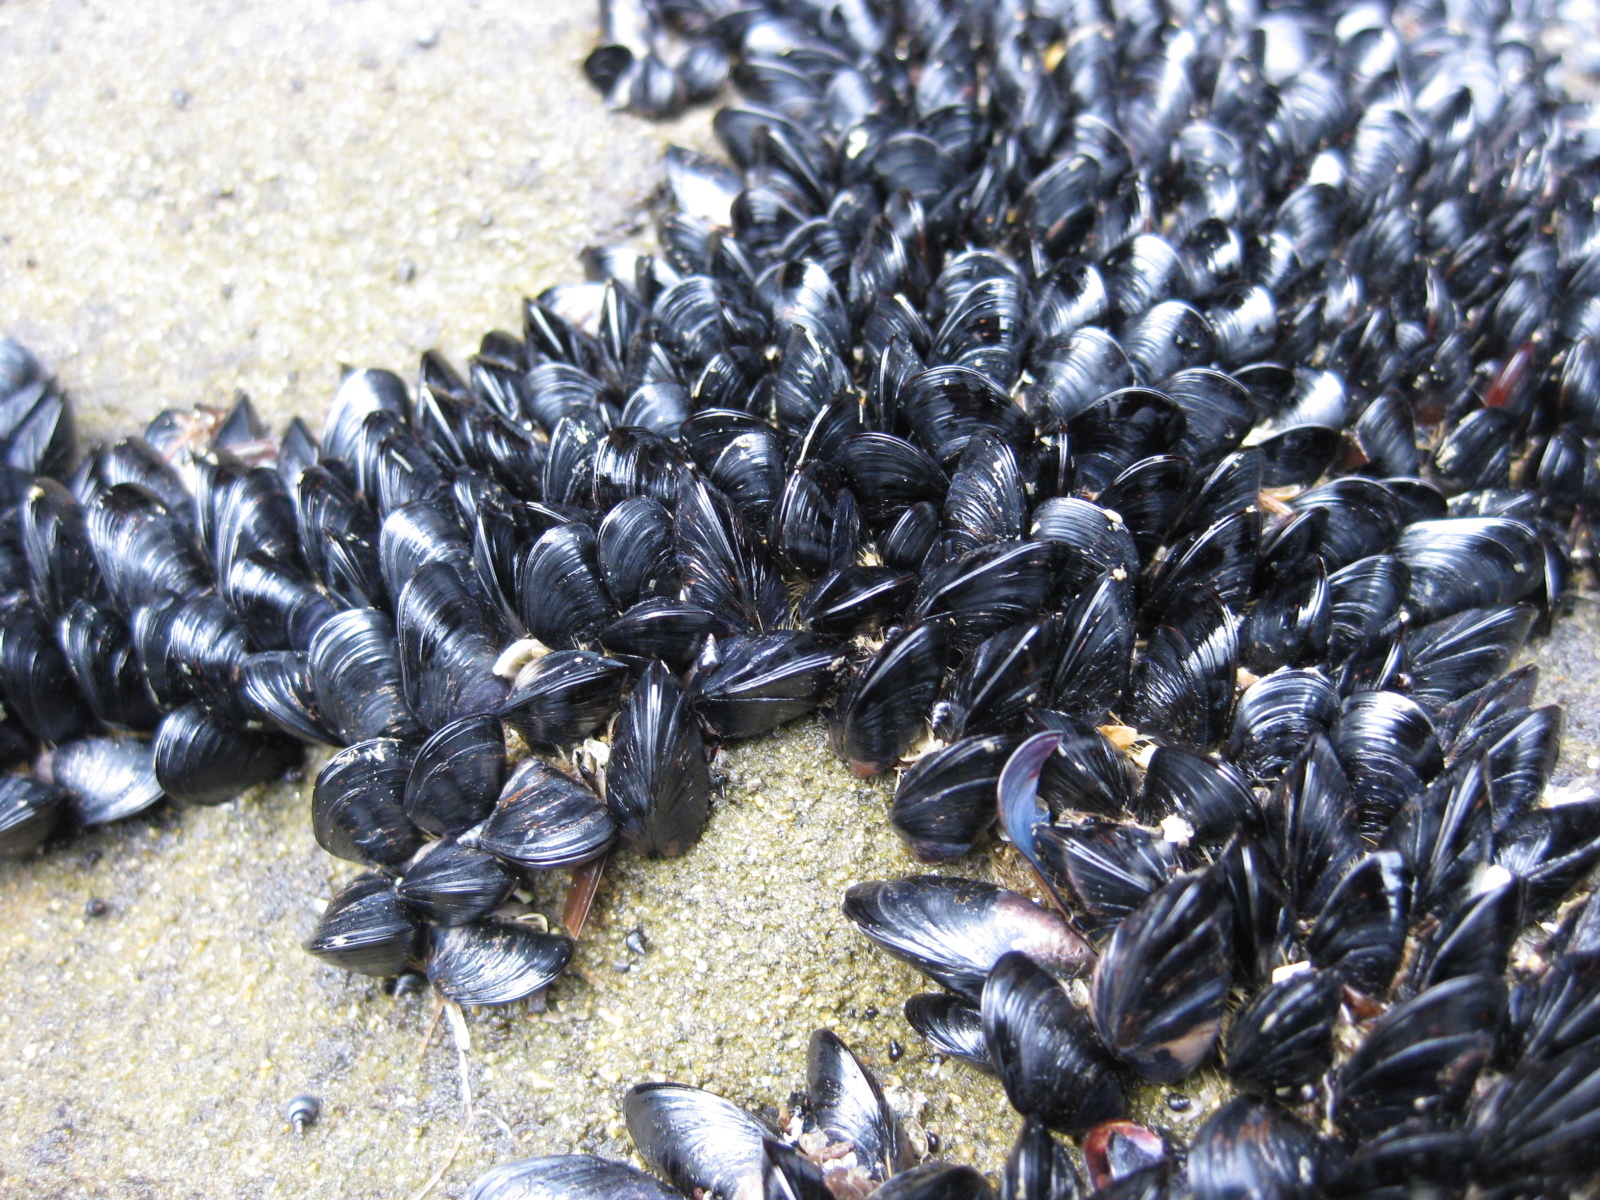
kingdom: Animalia
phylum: Mollusca
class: Bivalvia
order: Mytilida
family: Mytilidae
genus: Xenostrobus
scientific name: Xenostrobus neozelanicus
